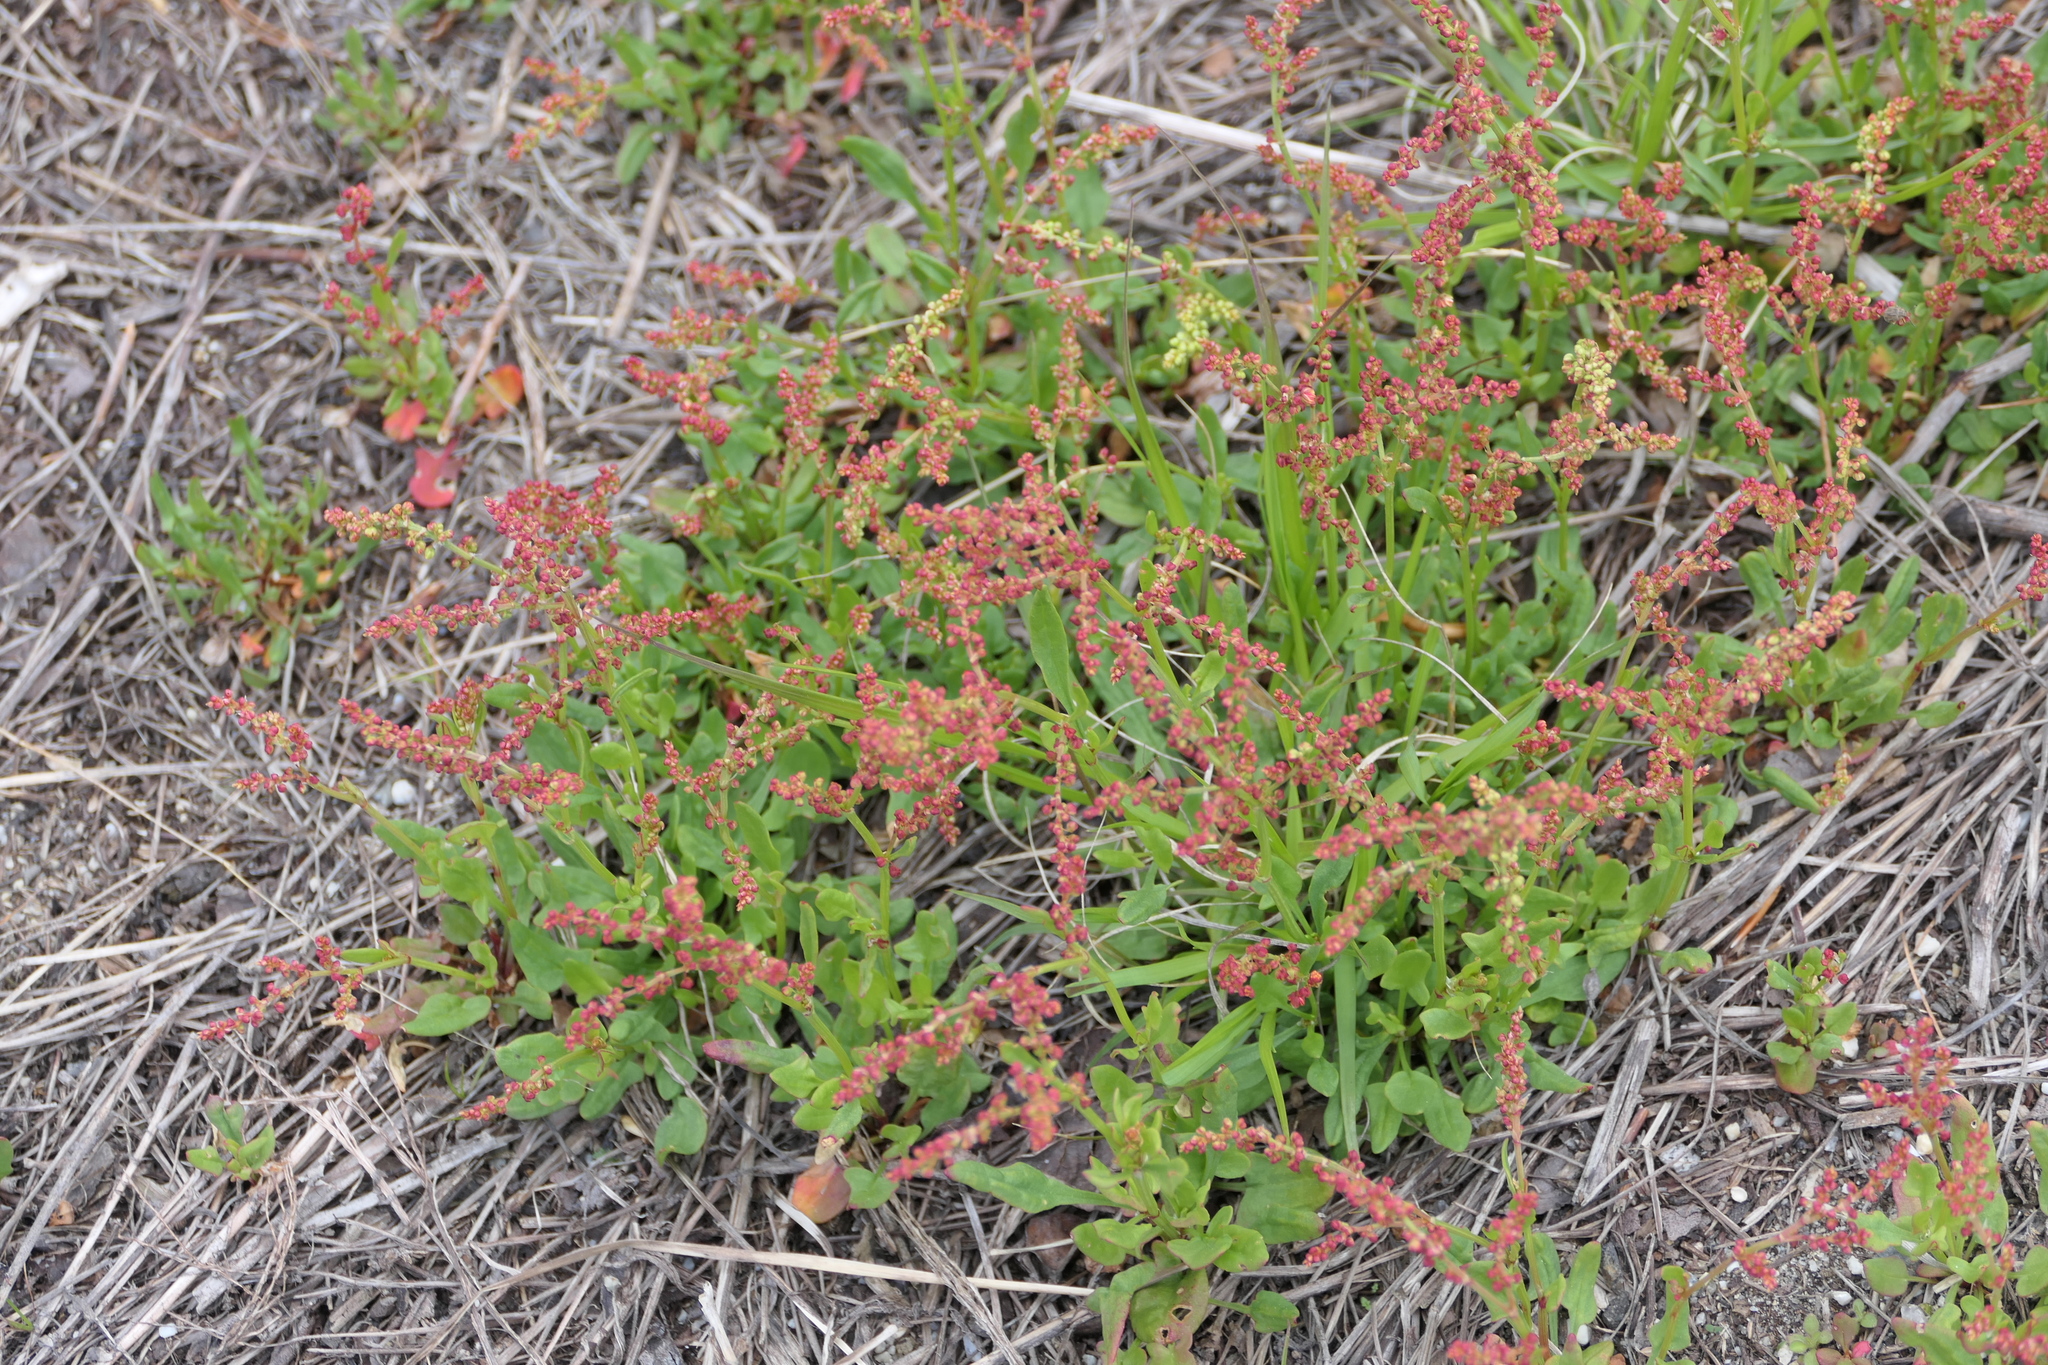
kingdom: Plantae
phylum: Tracheophyta
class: Magnoliopsida
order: Caryophyllales
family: Polygonaceae
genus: Rumex
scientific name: Rumex acetosella
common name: Common sheep sorrel
